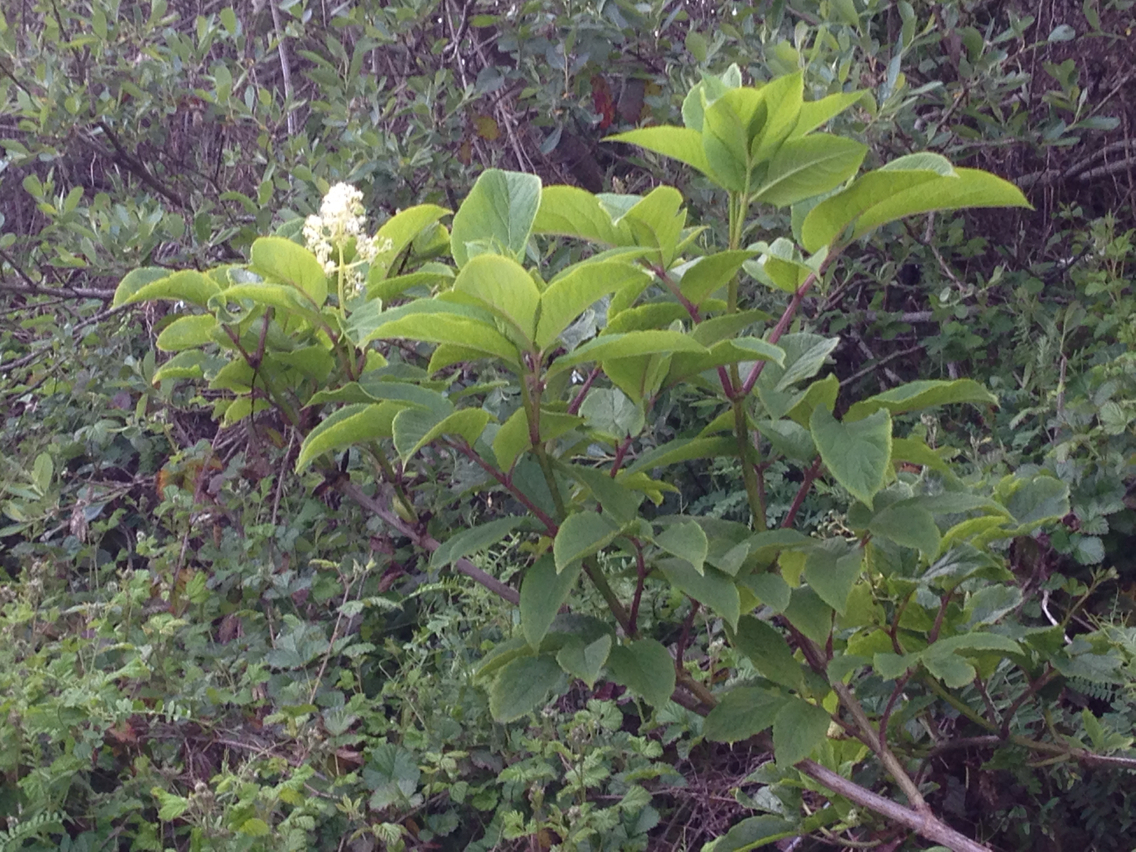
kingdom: Plantae
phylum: Tracheophyta
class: Magnoliopsida
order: Dipsacales
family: Viburnaceae
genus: Sambucus
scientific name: Sambucus racemosa
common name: Red-berried elder
